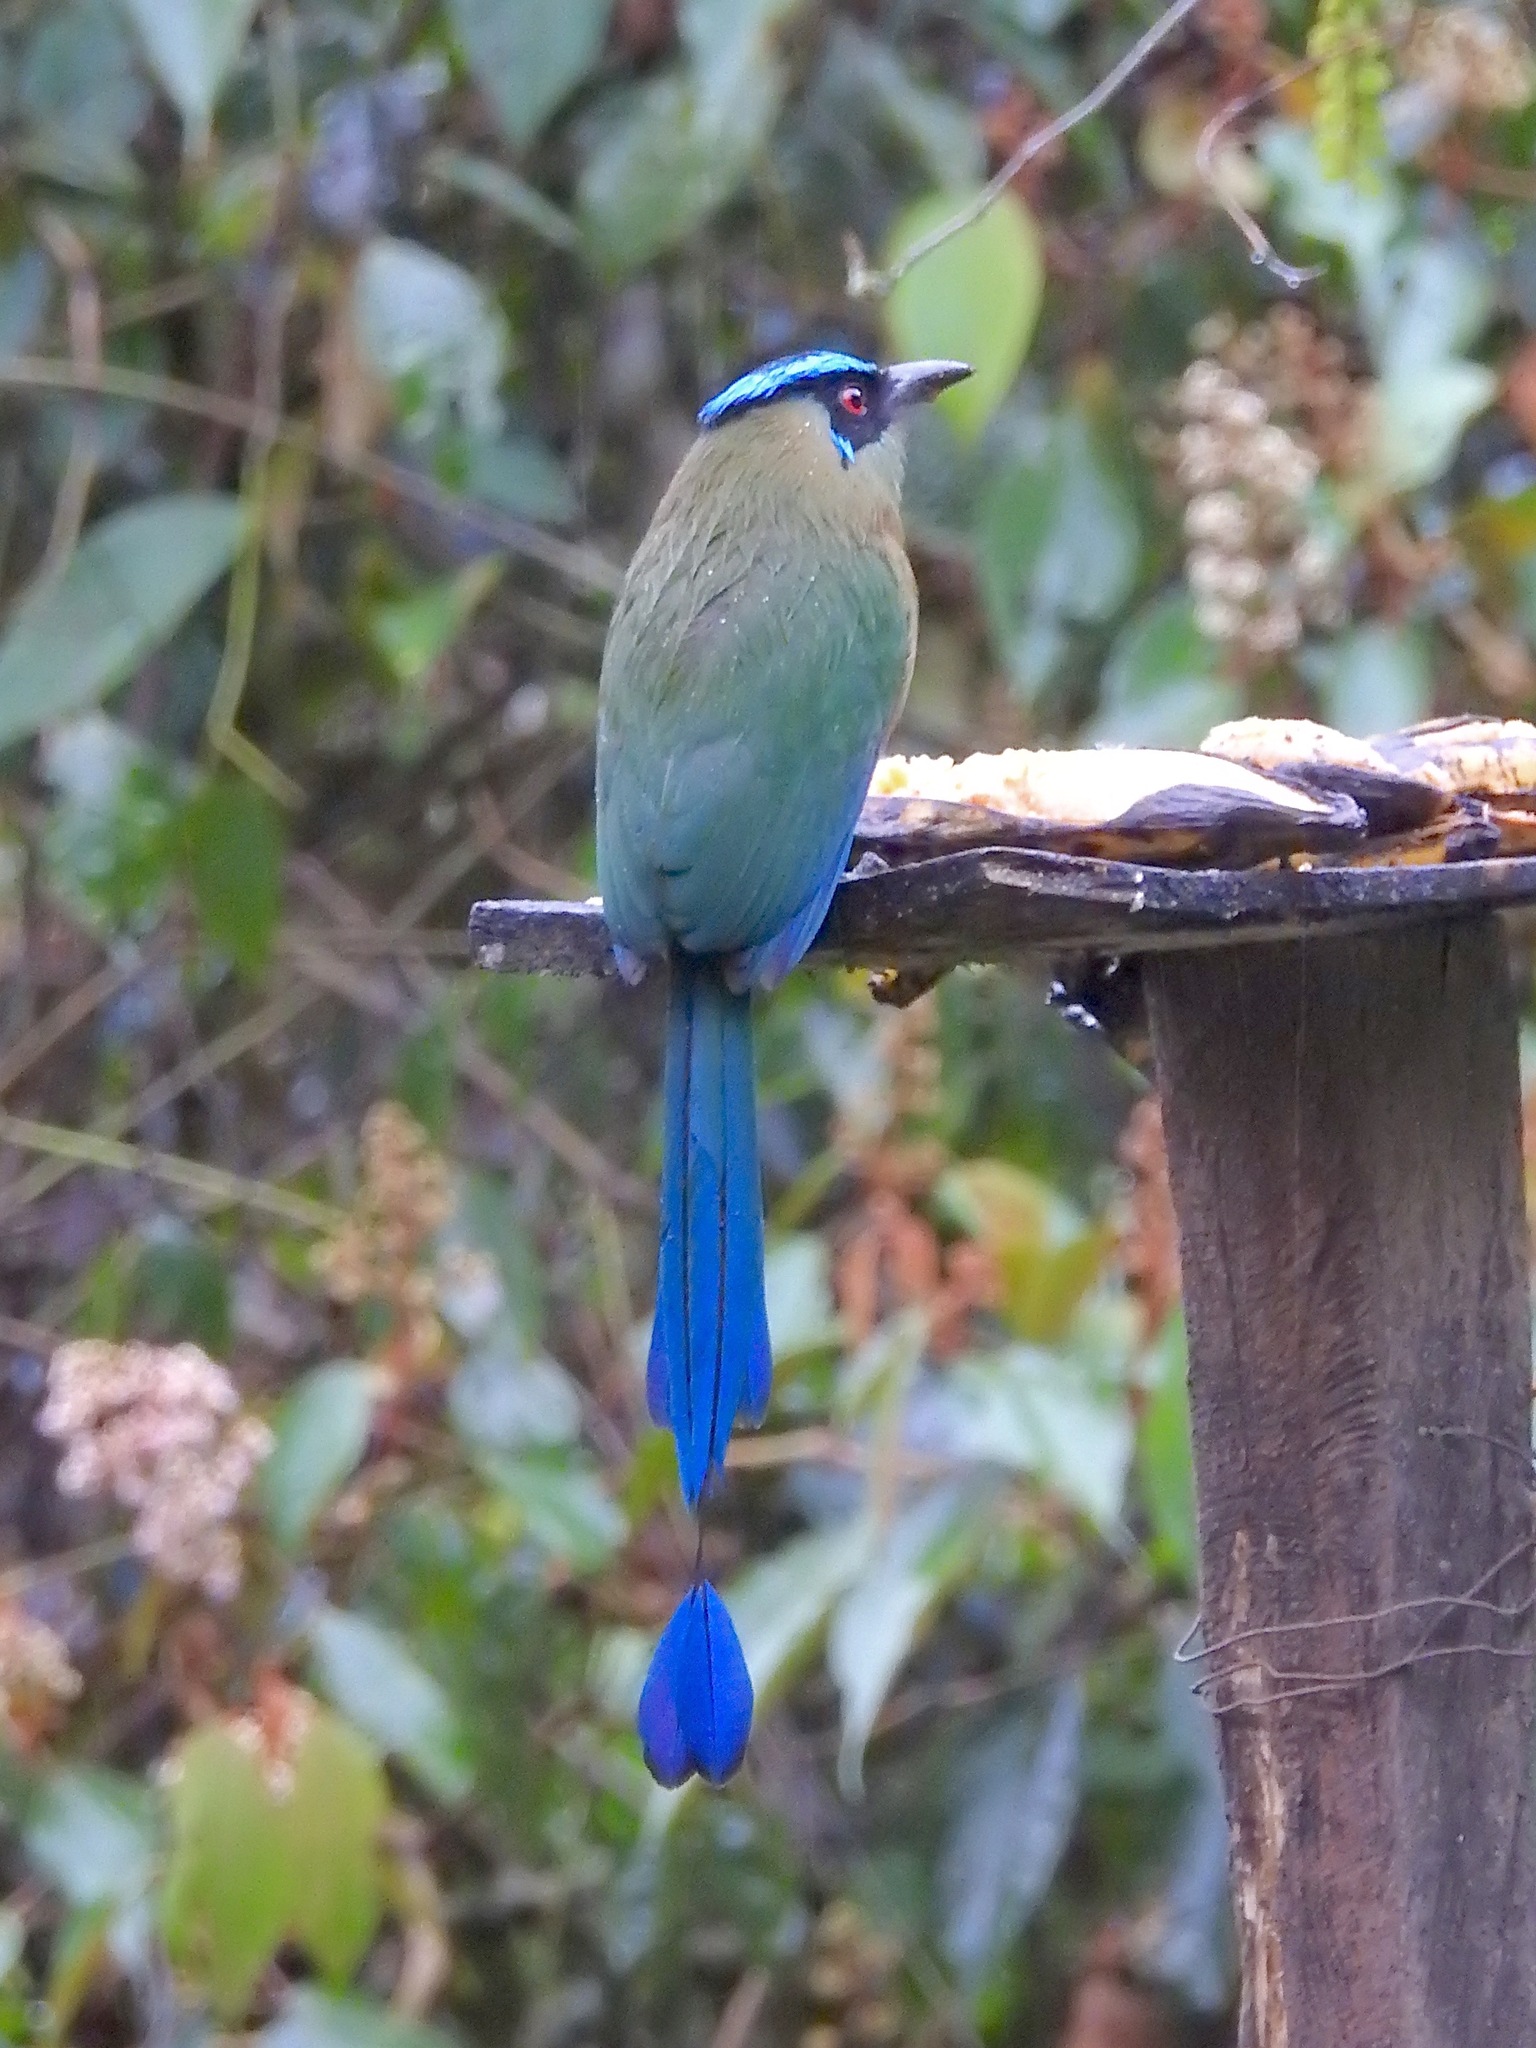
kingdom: Animalia
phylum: Chordata
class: Aves
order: Coraciiformes
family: Momotidae
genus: Momotus
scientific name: Momotus aequatorialis
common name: Andean motmot
